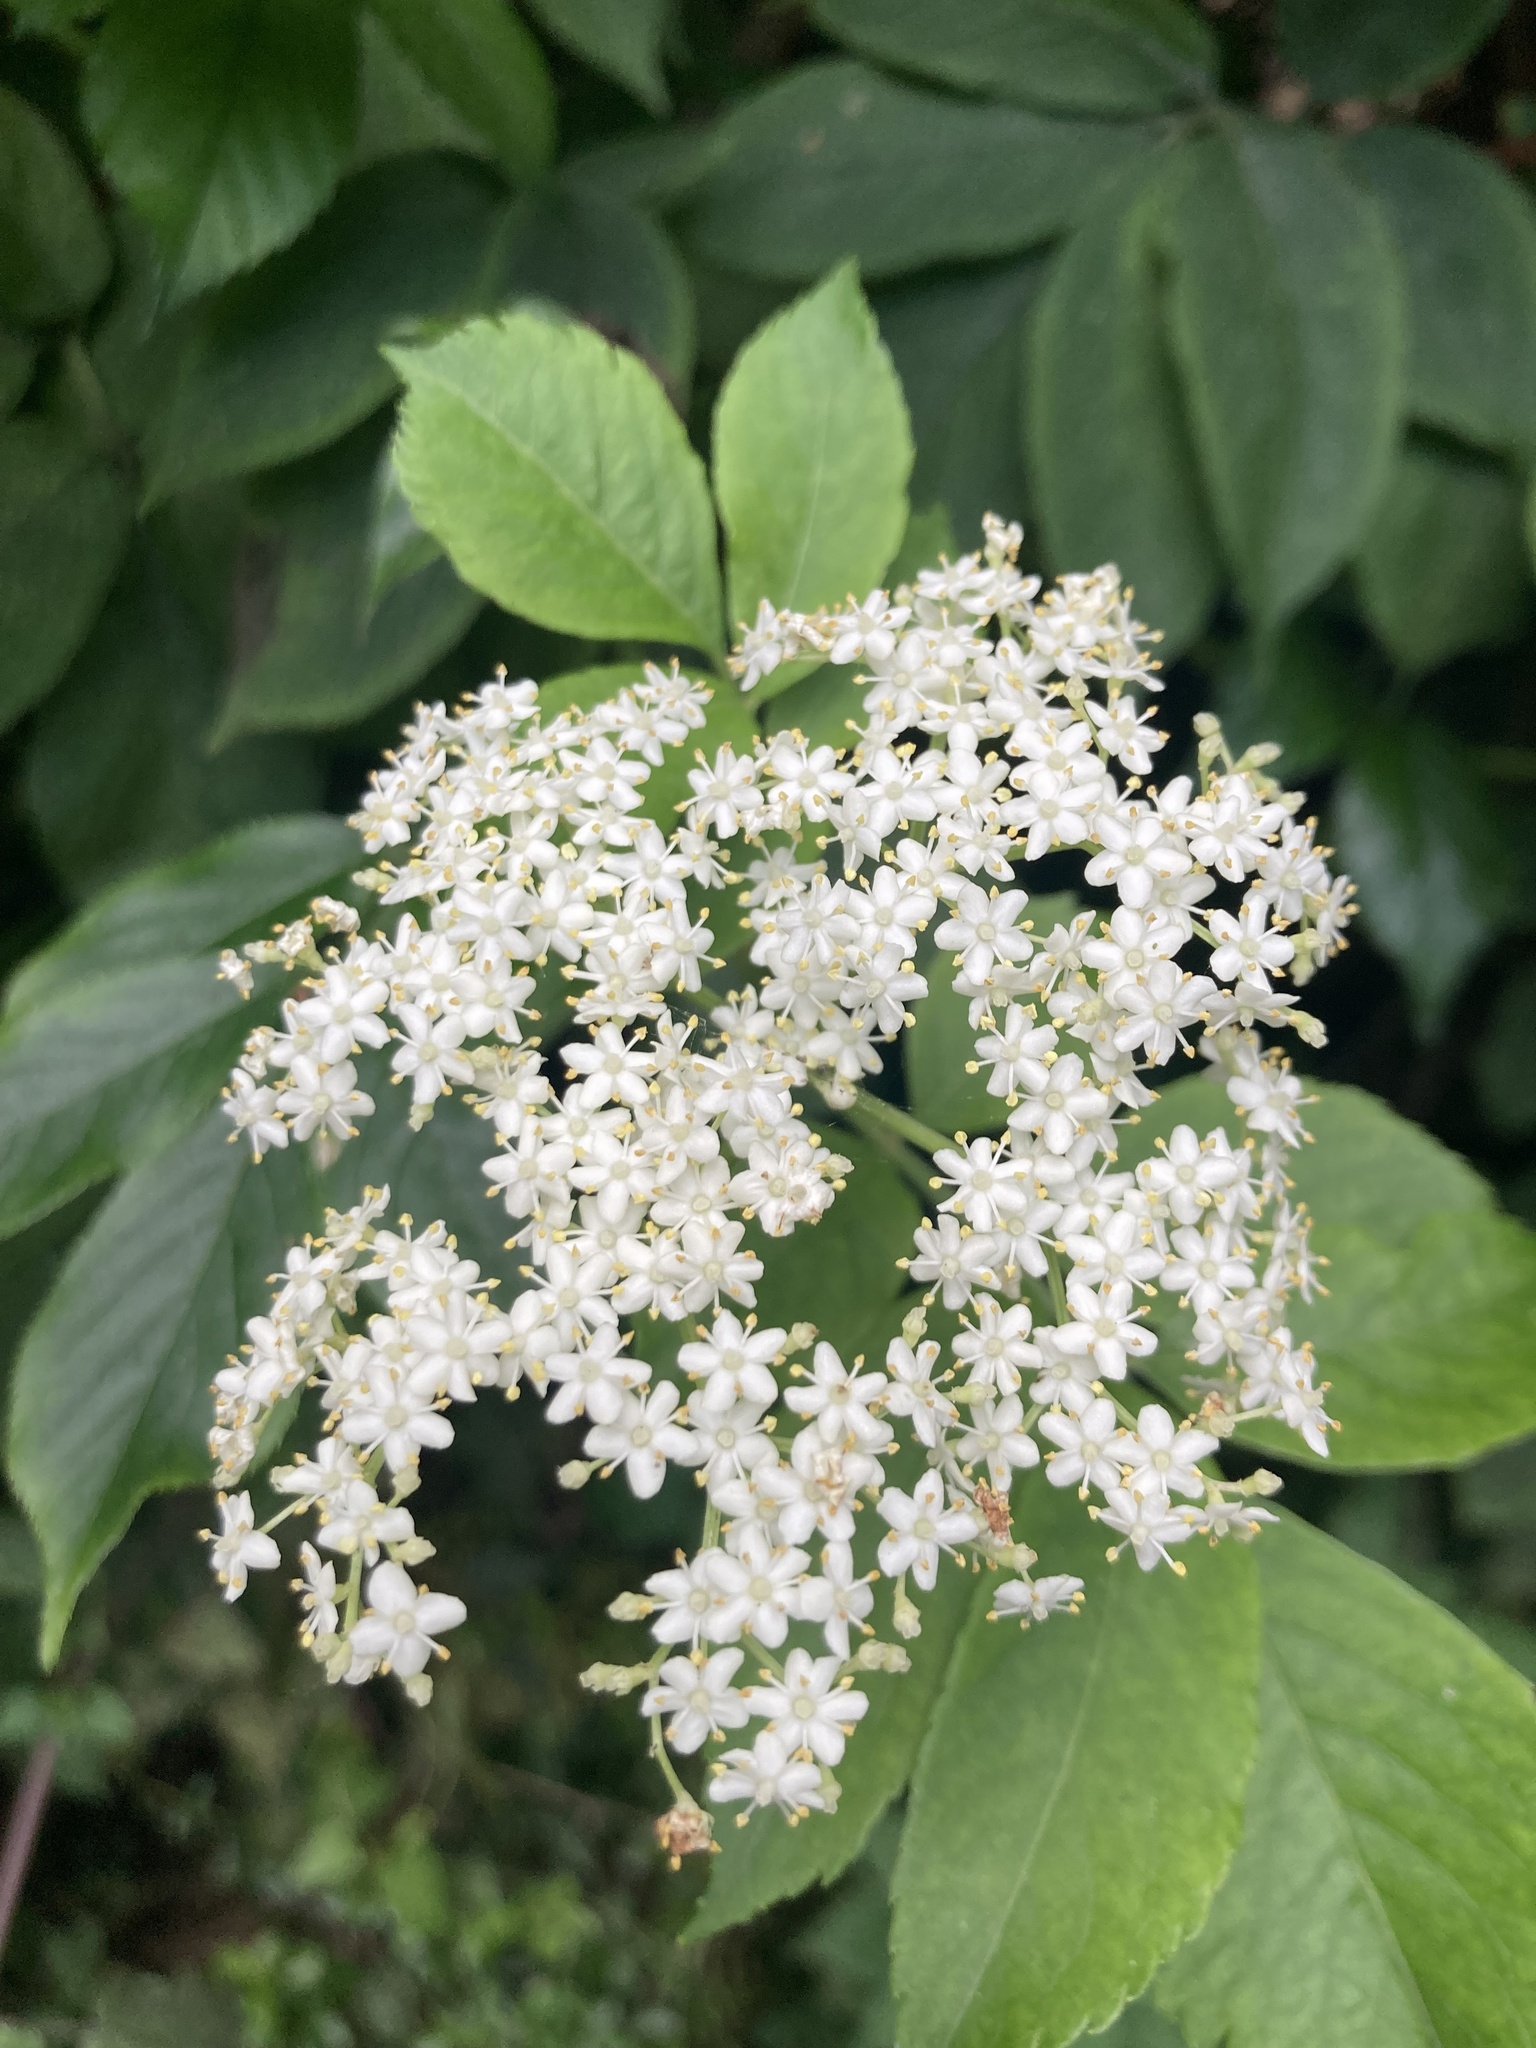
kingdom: Plantae
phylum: Tracheophyta
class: Magnoliopsida
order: Dipsacales
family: Viburnaceae
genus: Sambucus
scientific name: Sambucus nigra
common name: Elder
